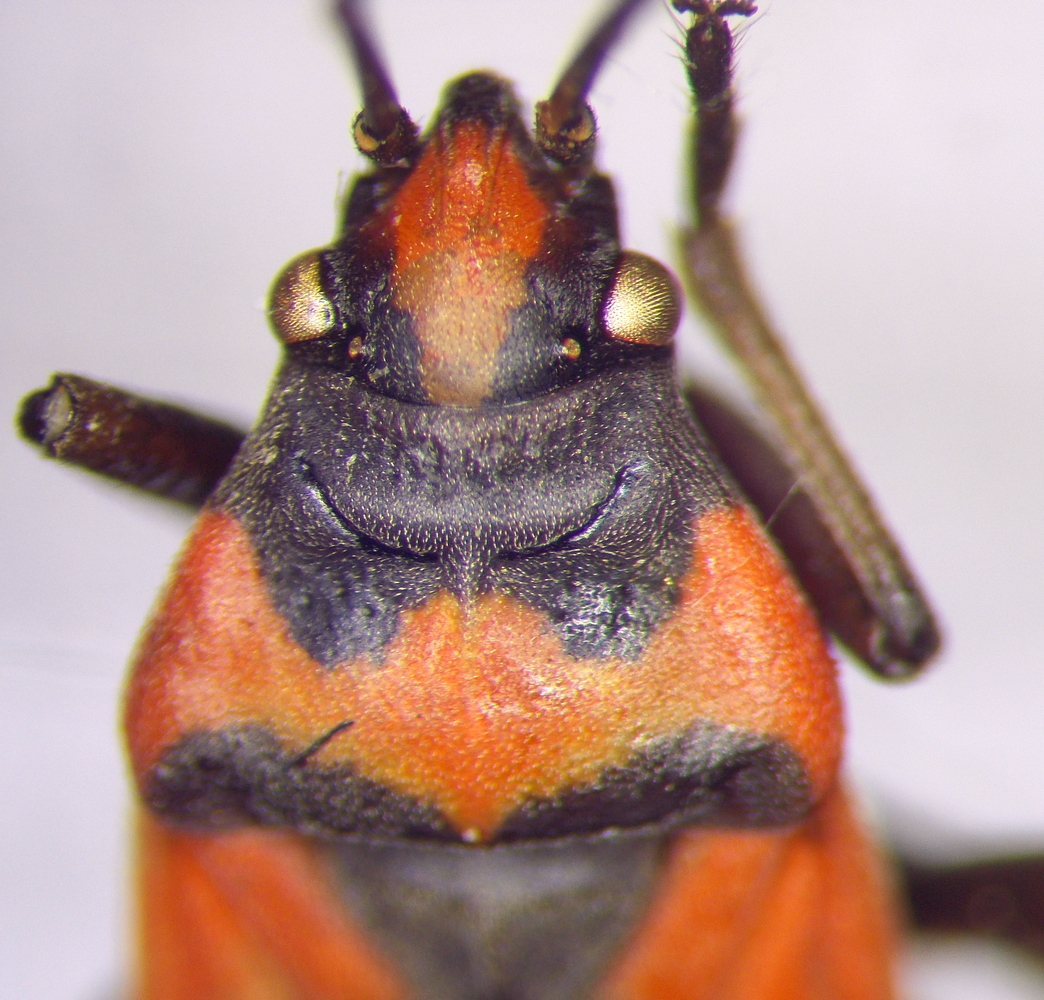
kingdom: Animalia
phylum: Arthropoda
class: Insecta
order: Hemiptera
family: Lygaeidae
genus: Lygaeus
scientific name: Lygaeus equestris
